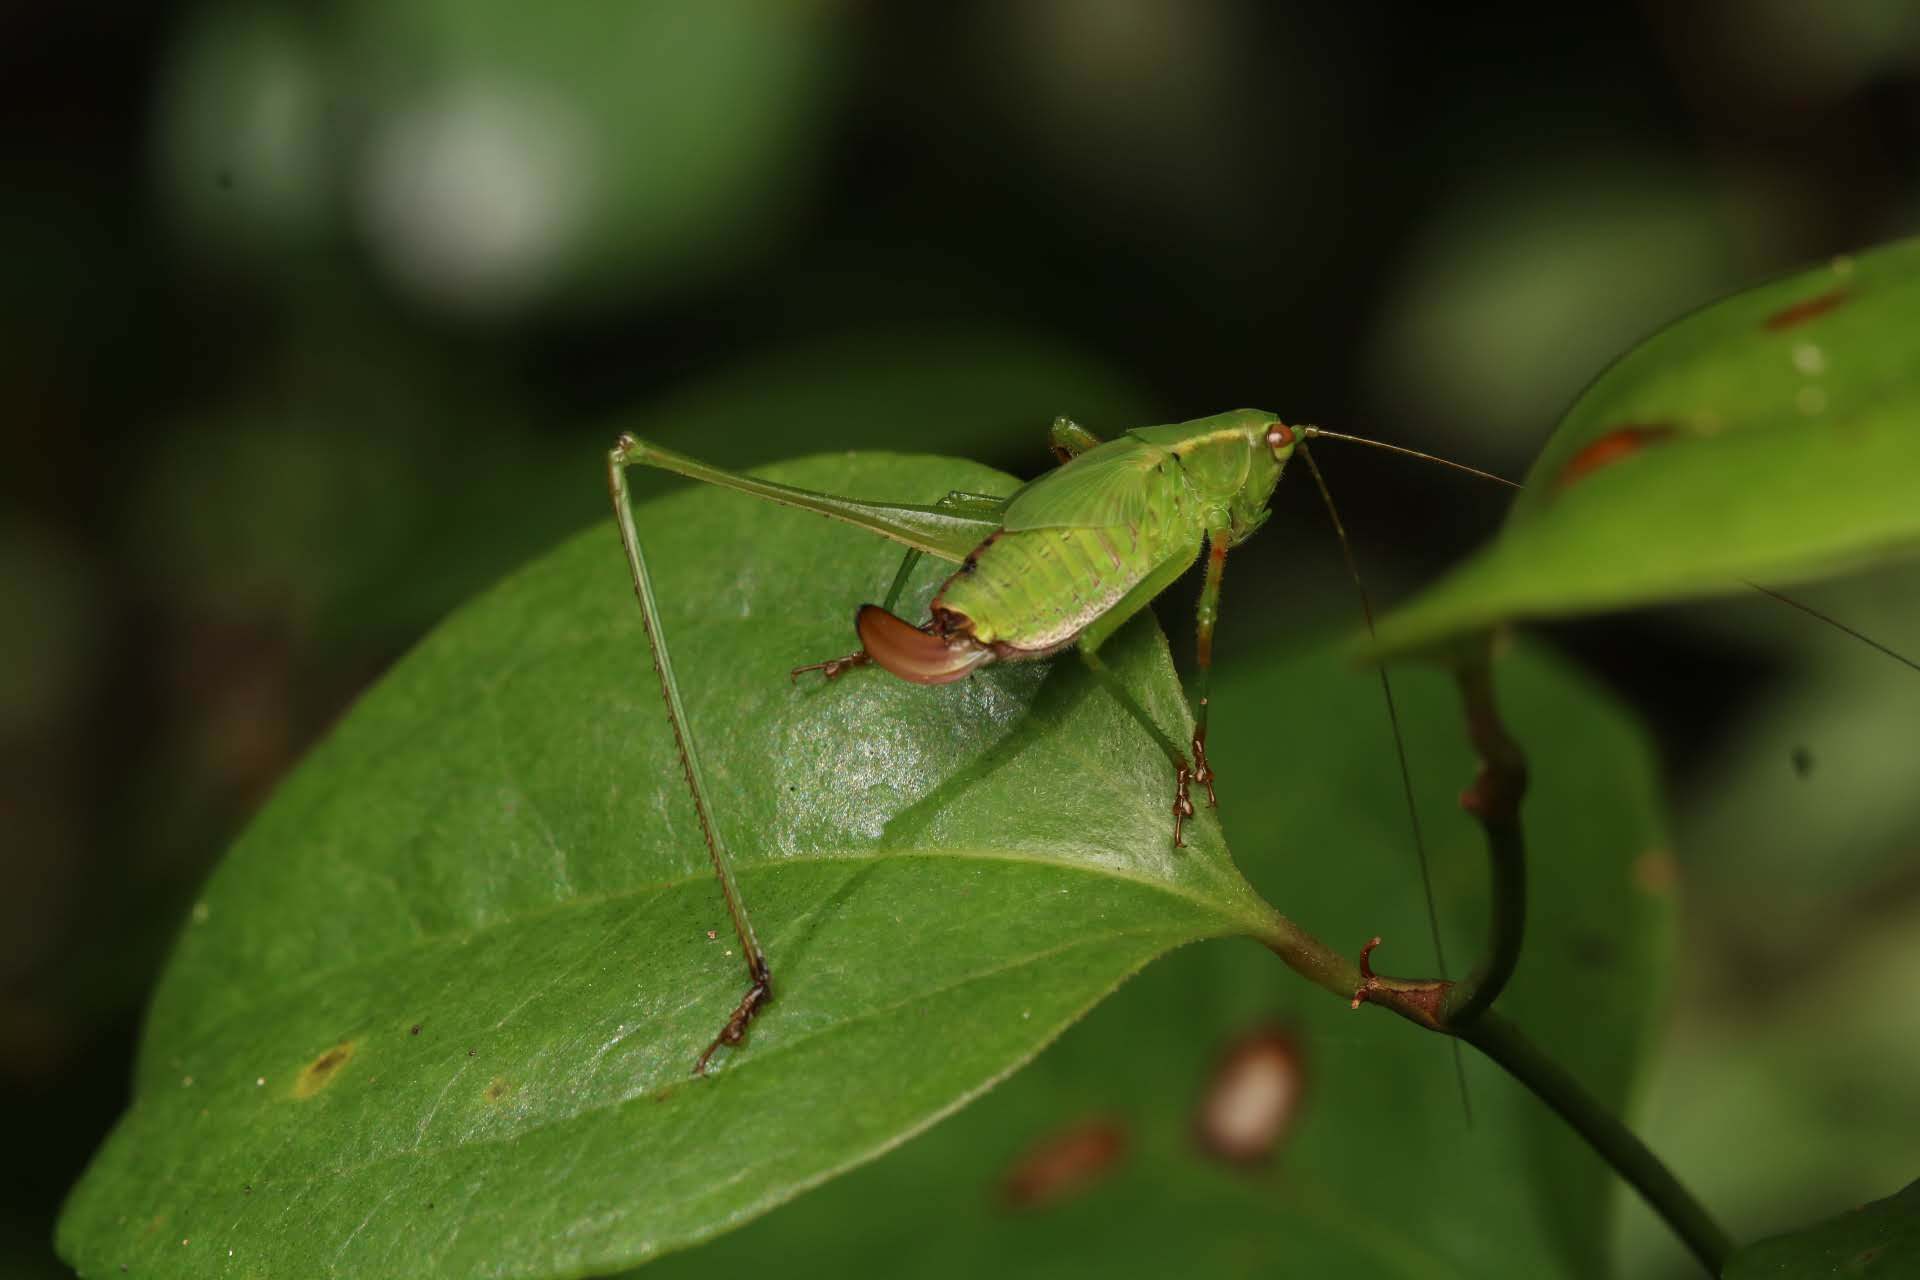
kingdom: Animalia
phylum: Arthropoda
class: Insecta
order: Orthoptera
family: Tettigoniidae
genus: Scudderia
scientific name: Scudderia furcata
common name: Fork-tailed bush katydid
